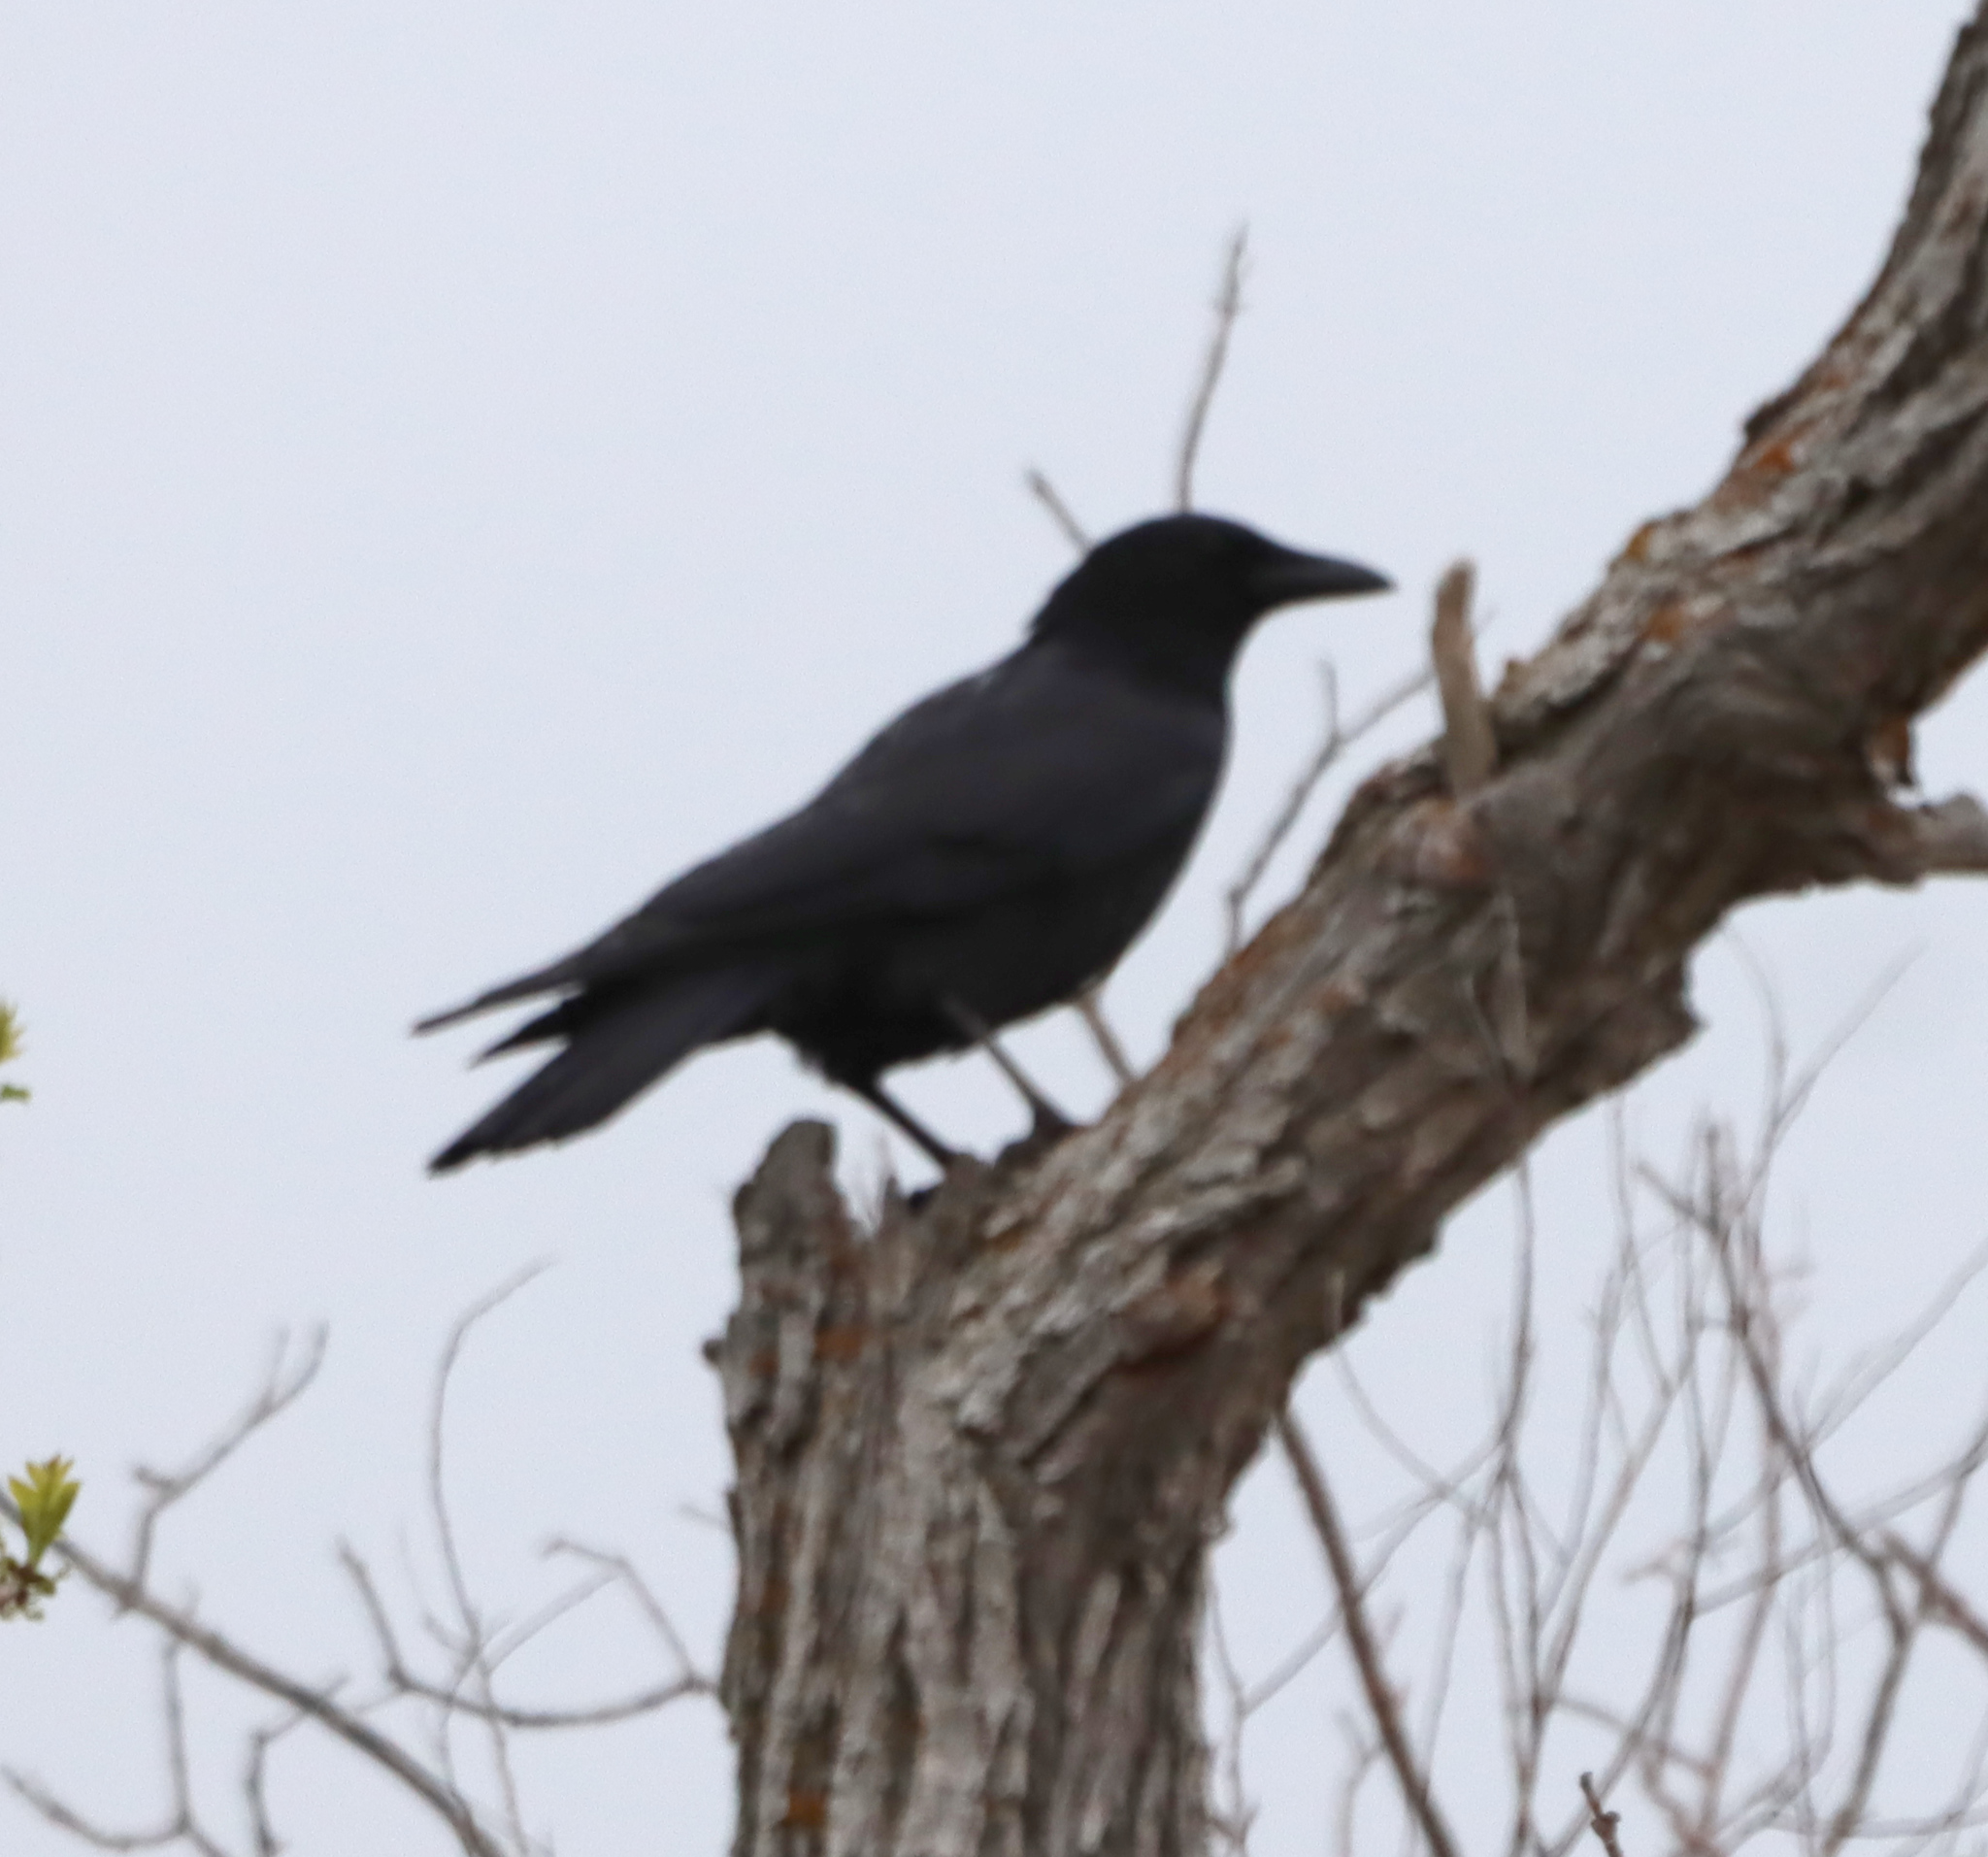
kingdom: Animalia
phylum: Chordata
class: Aves
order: Passeriformes
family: Corvidae
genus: Corvus
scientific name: Corvus brachyrhynchos
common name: American crow
